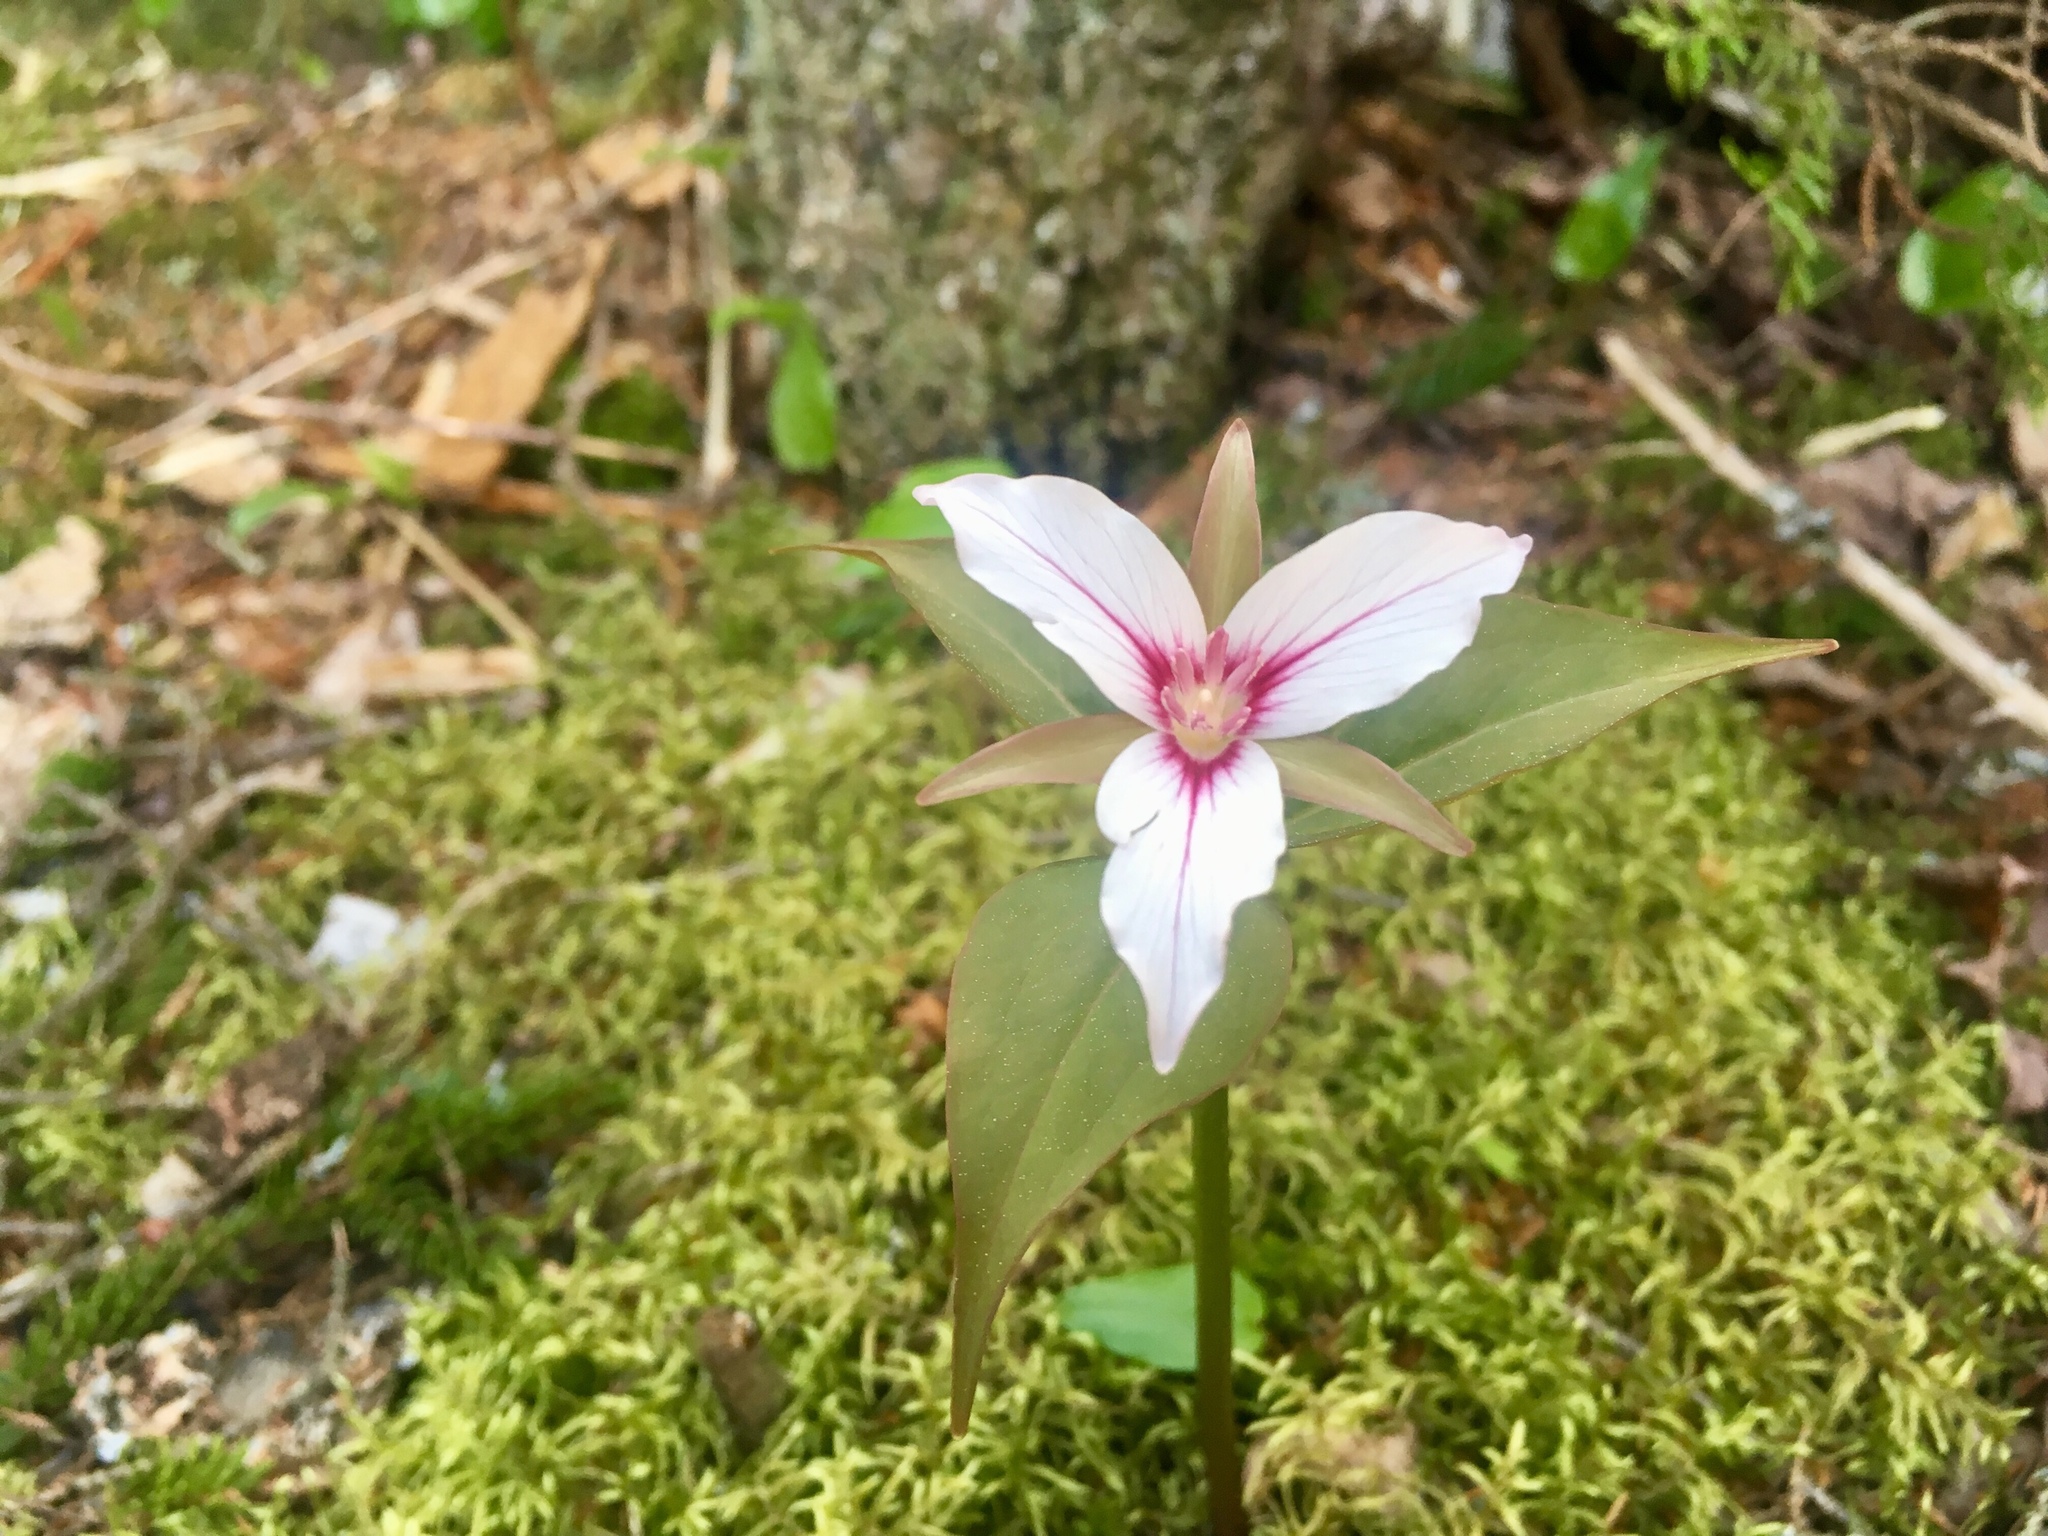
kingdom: Plantae
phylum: Tracheophyta
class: Liliopsida
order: Liliales
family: Melanthiaceae
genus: Trillium
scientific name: Trillium undulatum
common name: Paint trillium
